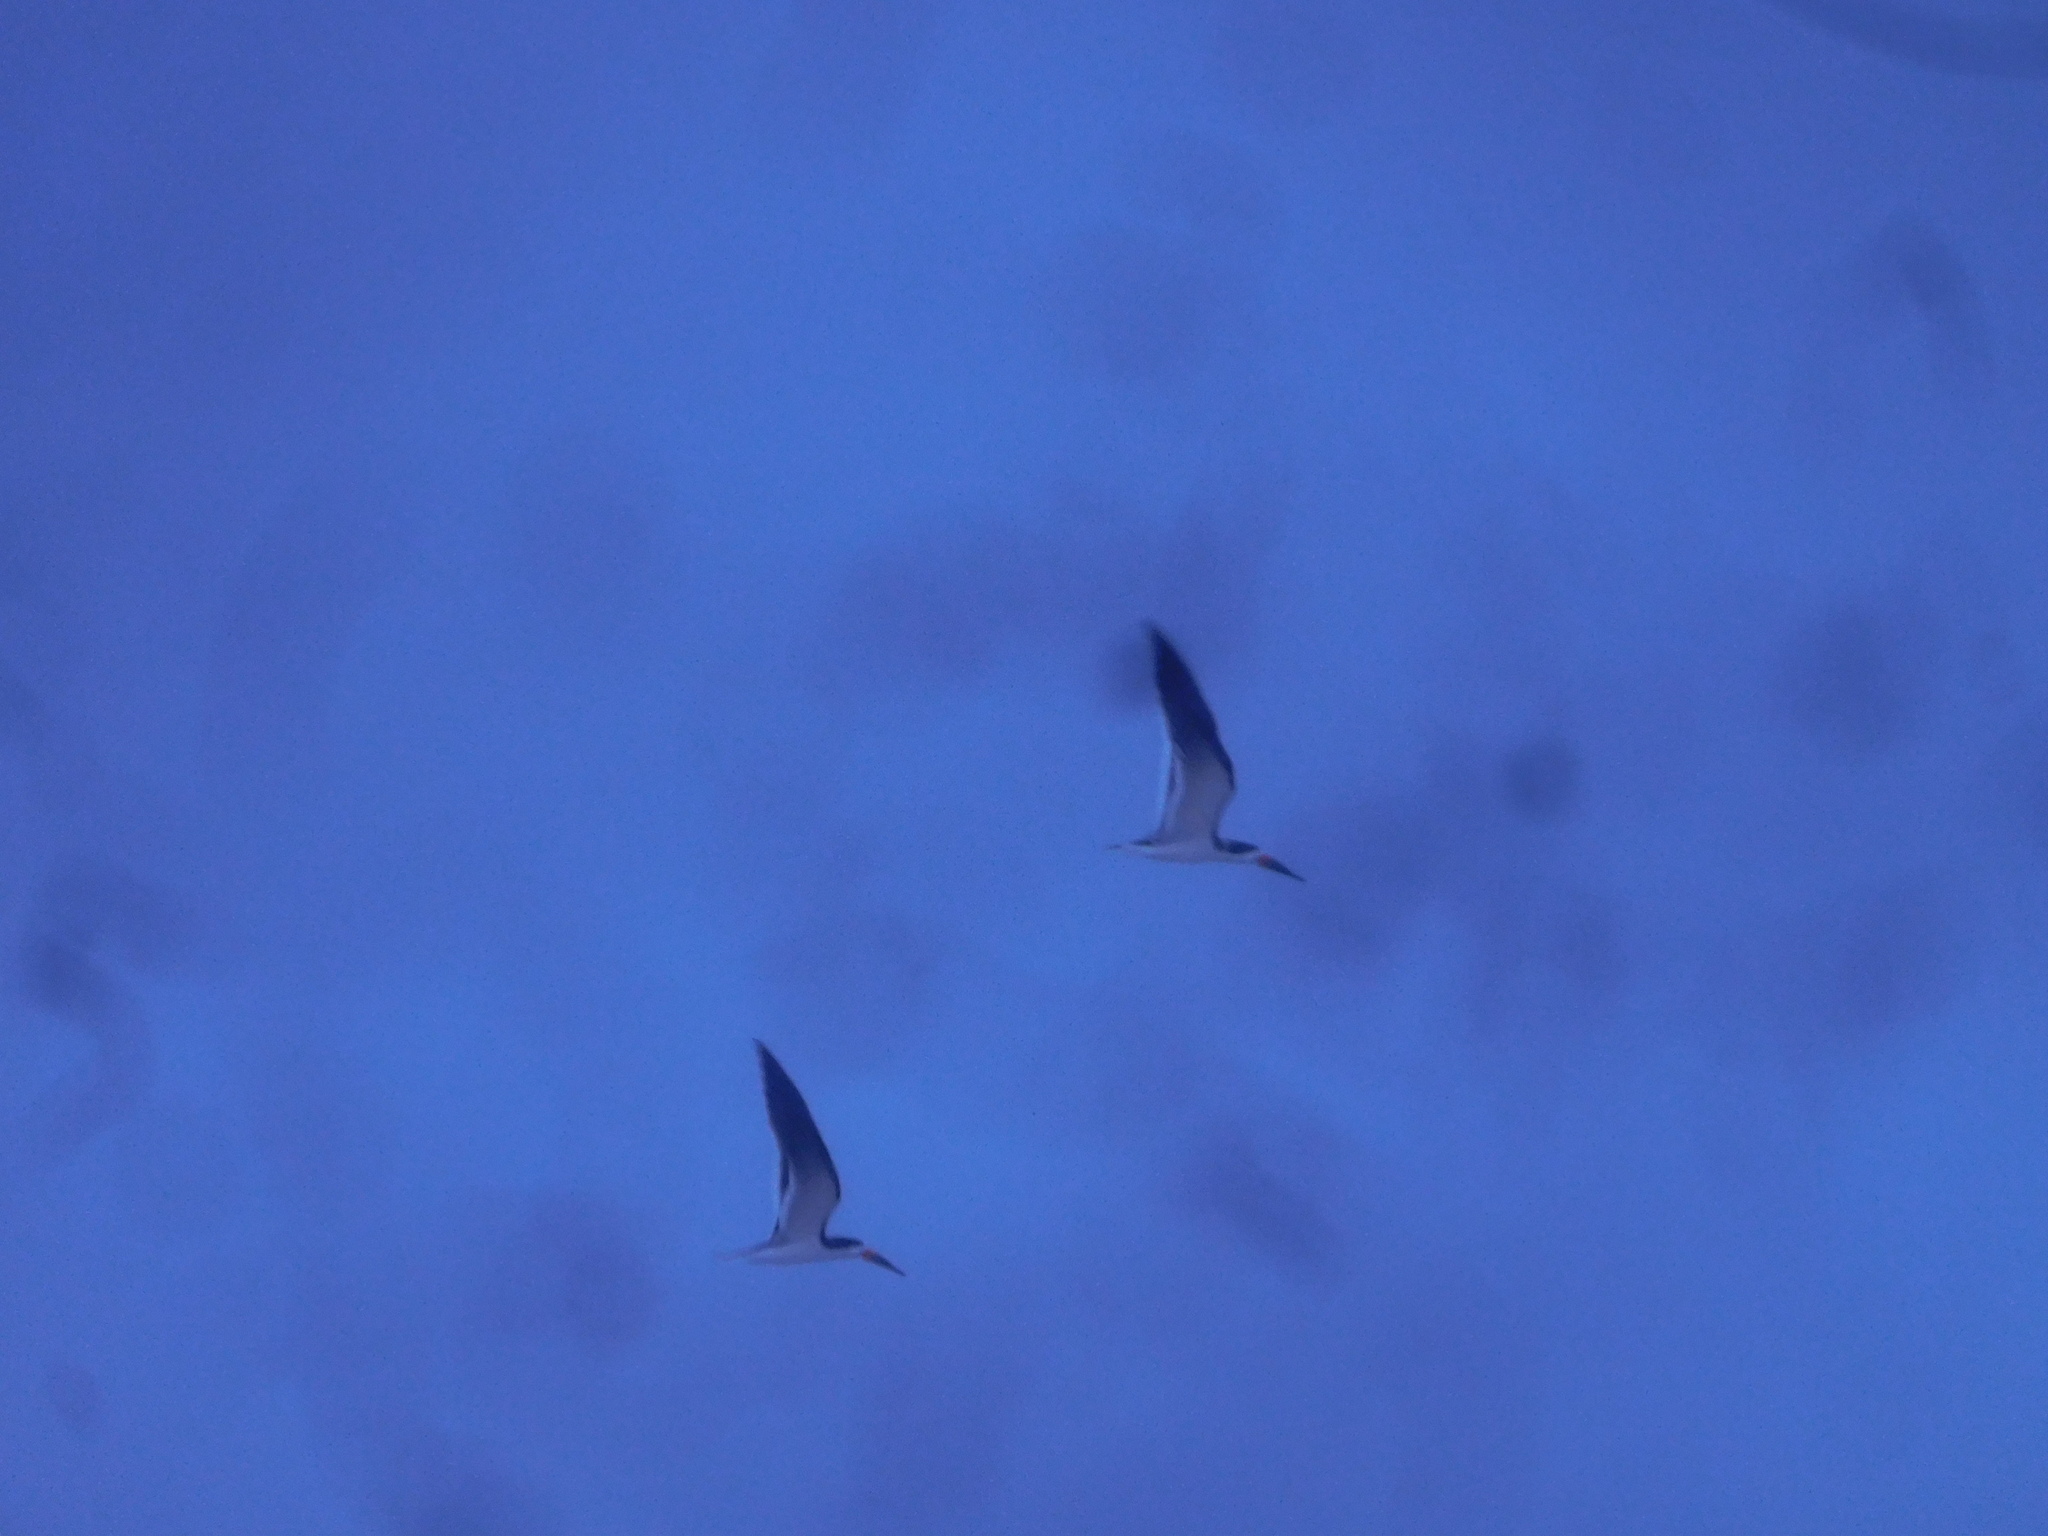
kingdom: Animalia
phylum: Chordata
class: Aves
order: Charadriiformes
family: Laridae
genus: Rynchops
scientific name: Rynchops niger
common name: Black skimmer
